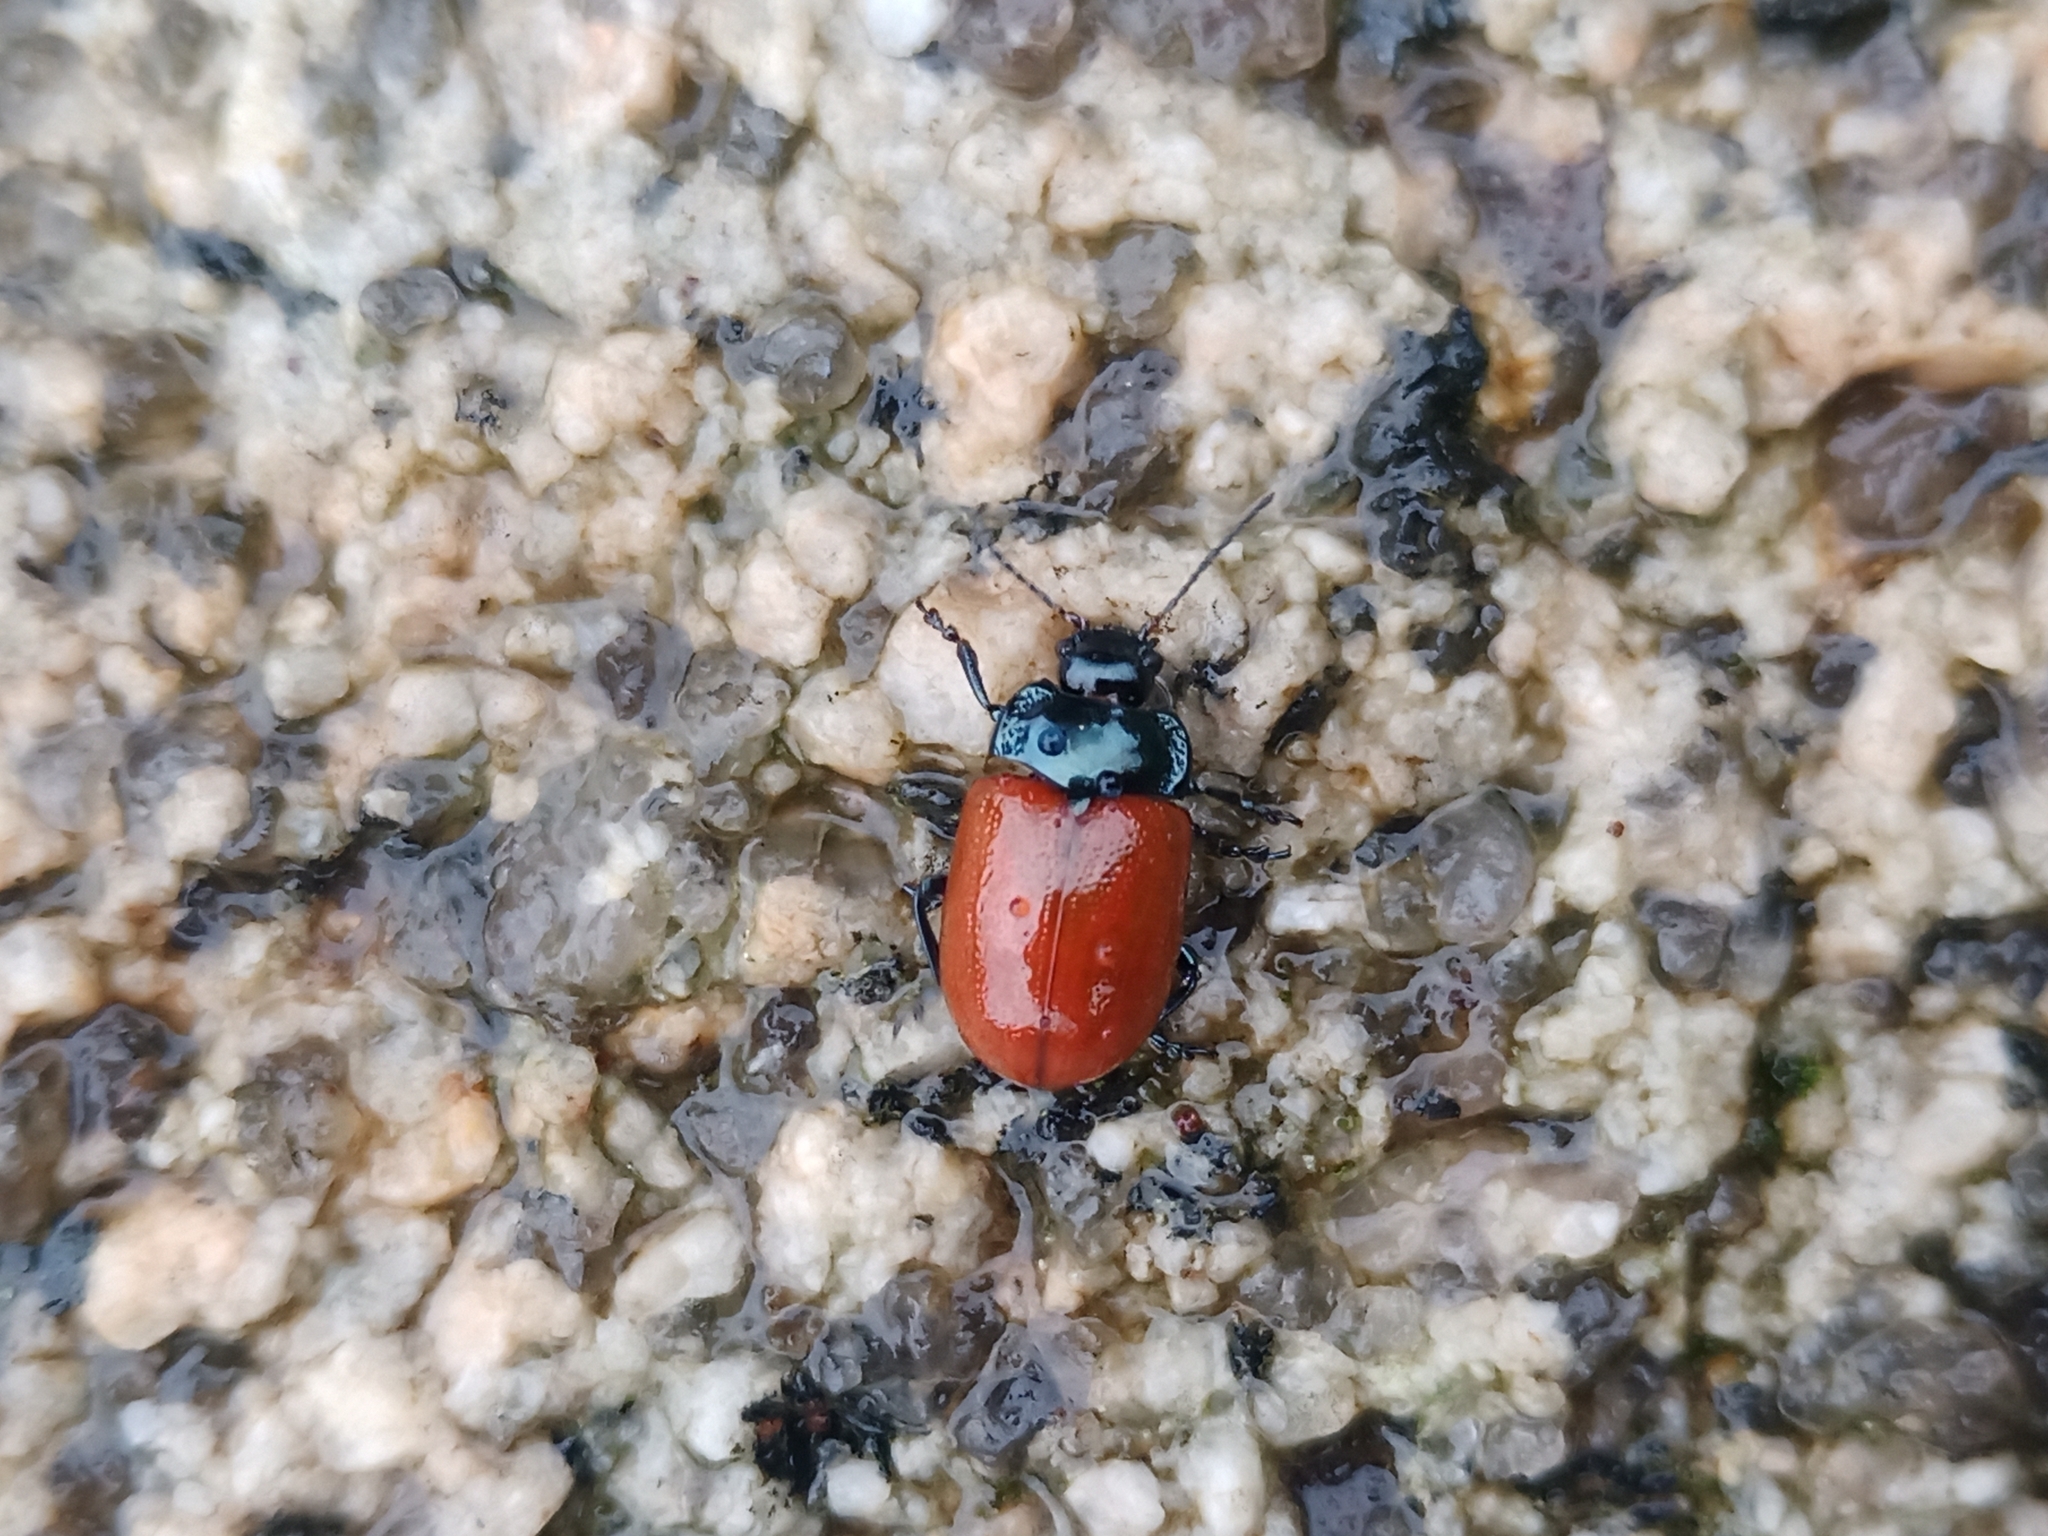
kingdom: Animalia
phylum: Arthropoda
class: Insecta
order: Coleoptera
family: Chrysomelidae
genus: Chrysolina
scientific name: Chrysolina lucida
